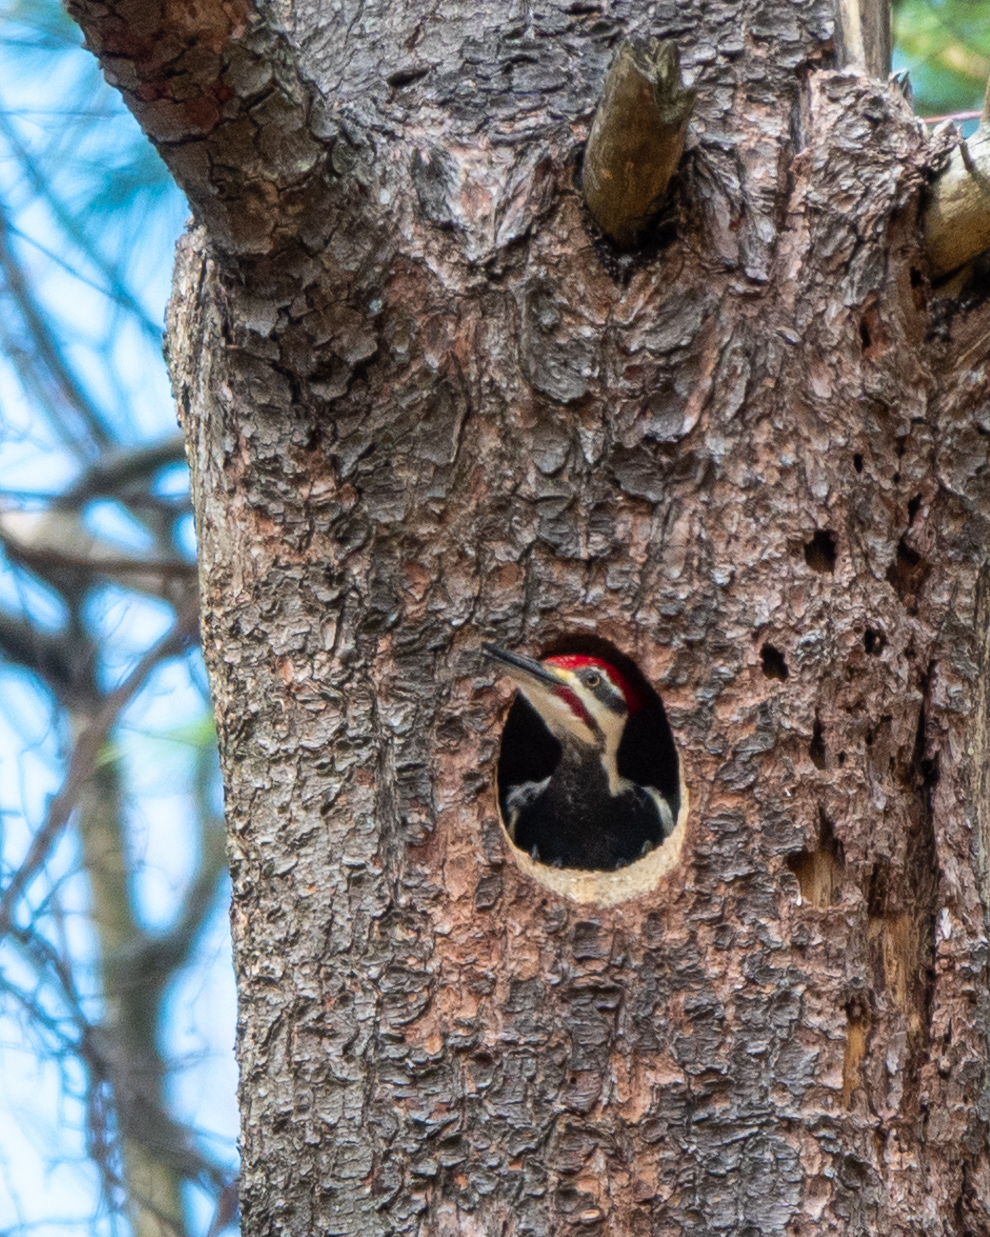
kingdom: Animalia
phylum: Chordata
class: Aves
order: Piciformes
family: Picidae
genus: Dryocopus
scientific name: Dryocopus pileatus
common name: Pileated woodpecker
